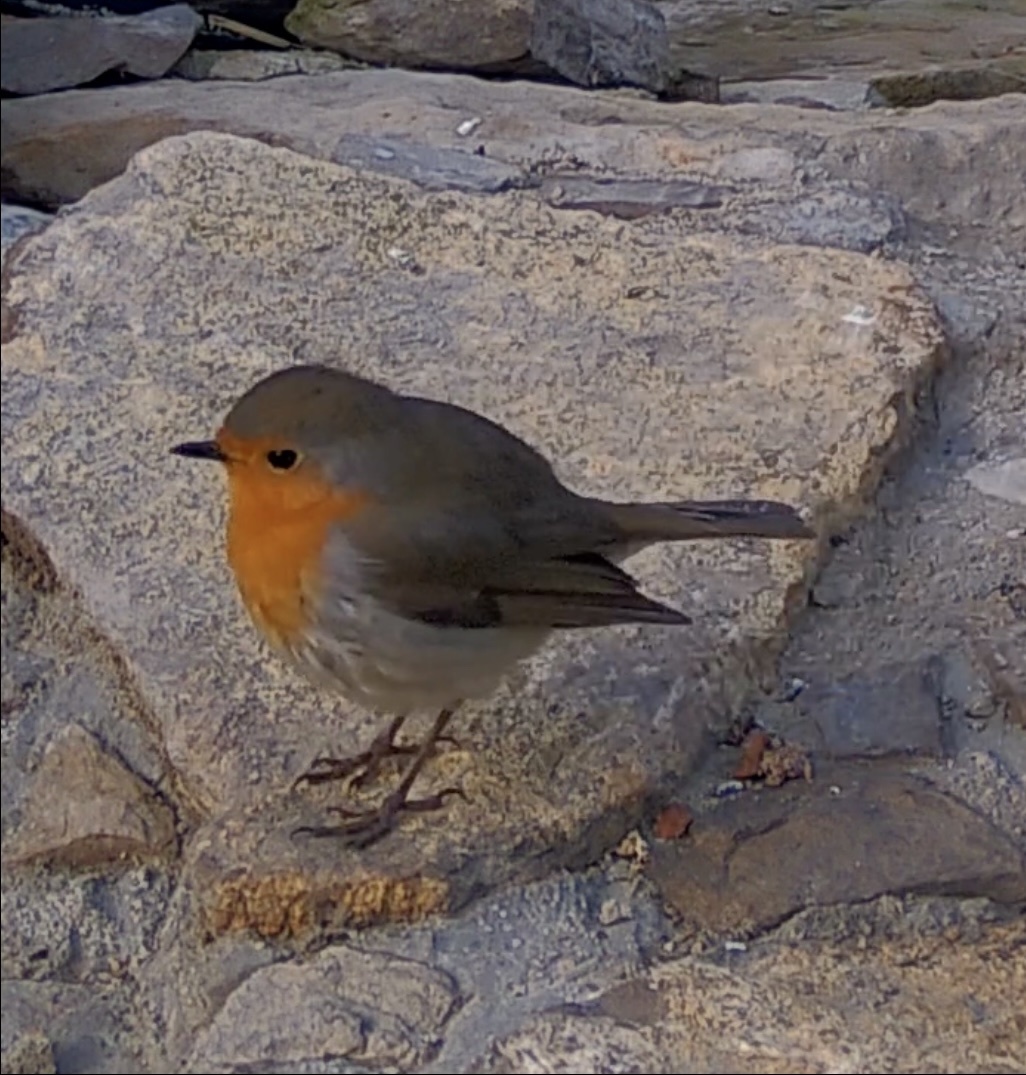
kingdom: Animalia
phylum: Chordata
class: Aves
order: Passeriformes
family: Muscicapidae
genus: Erithacus
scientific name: Erithacus rubecula
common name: European robin
